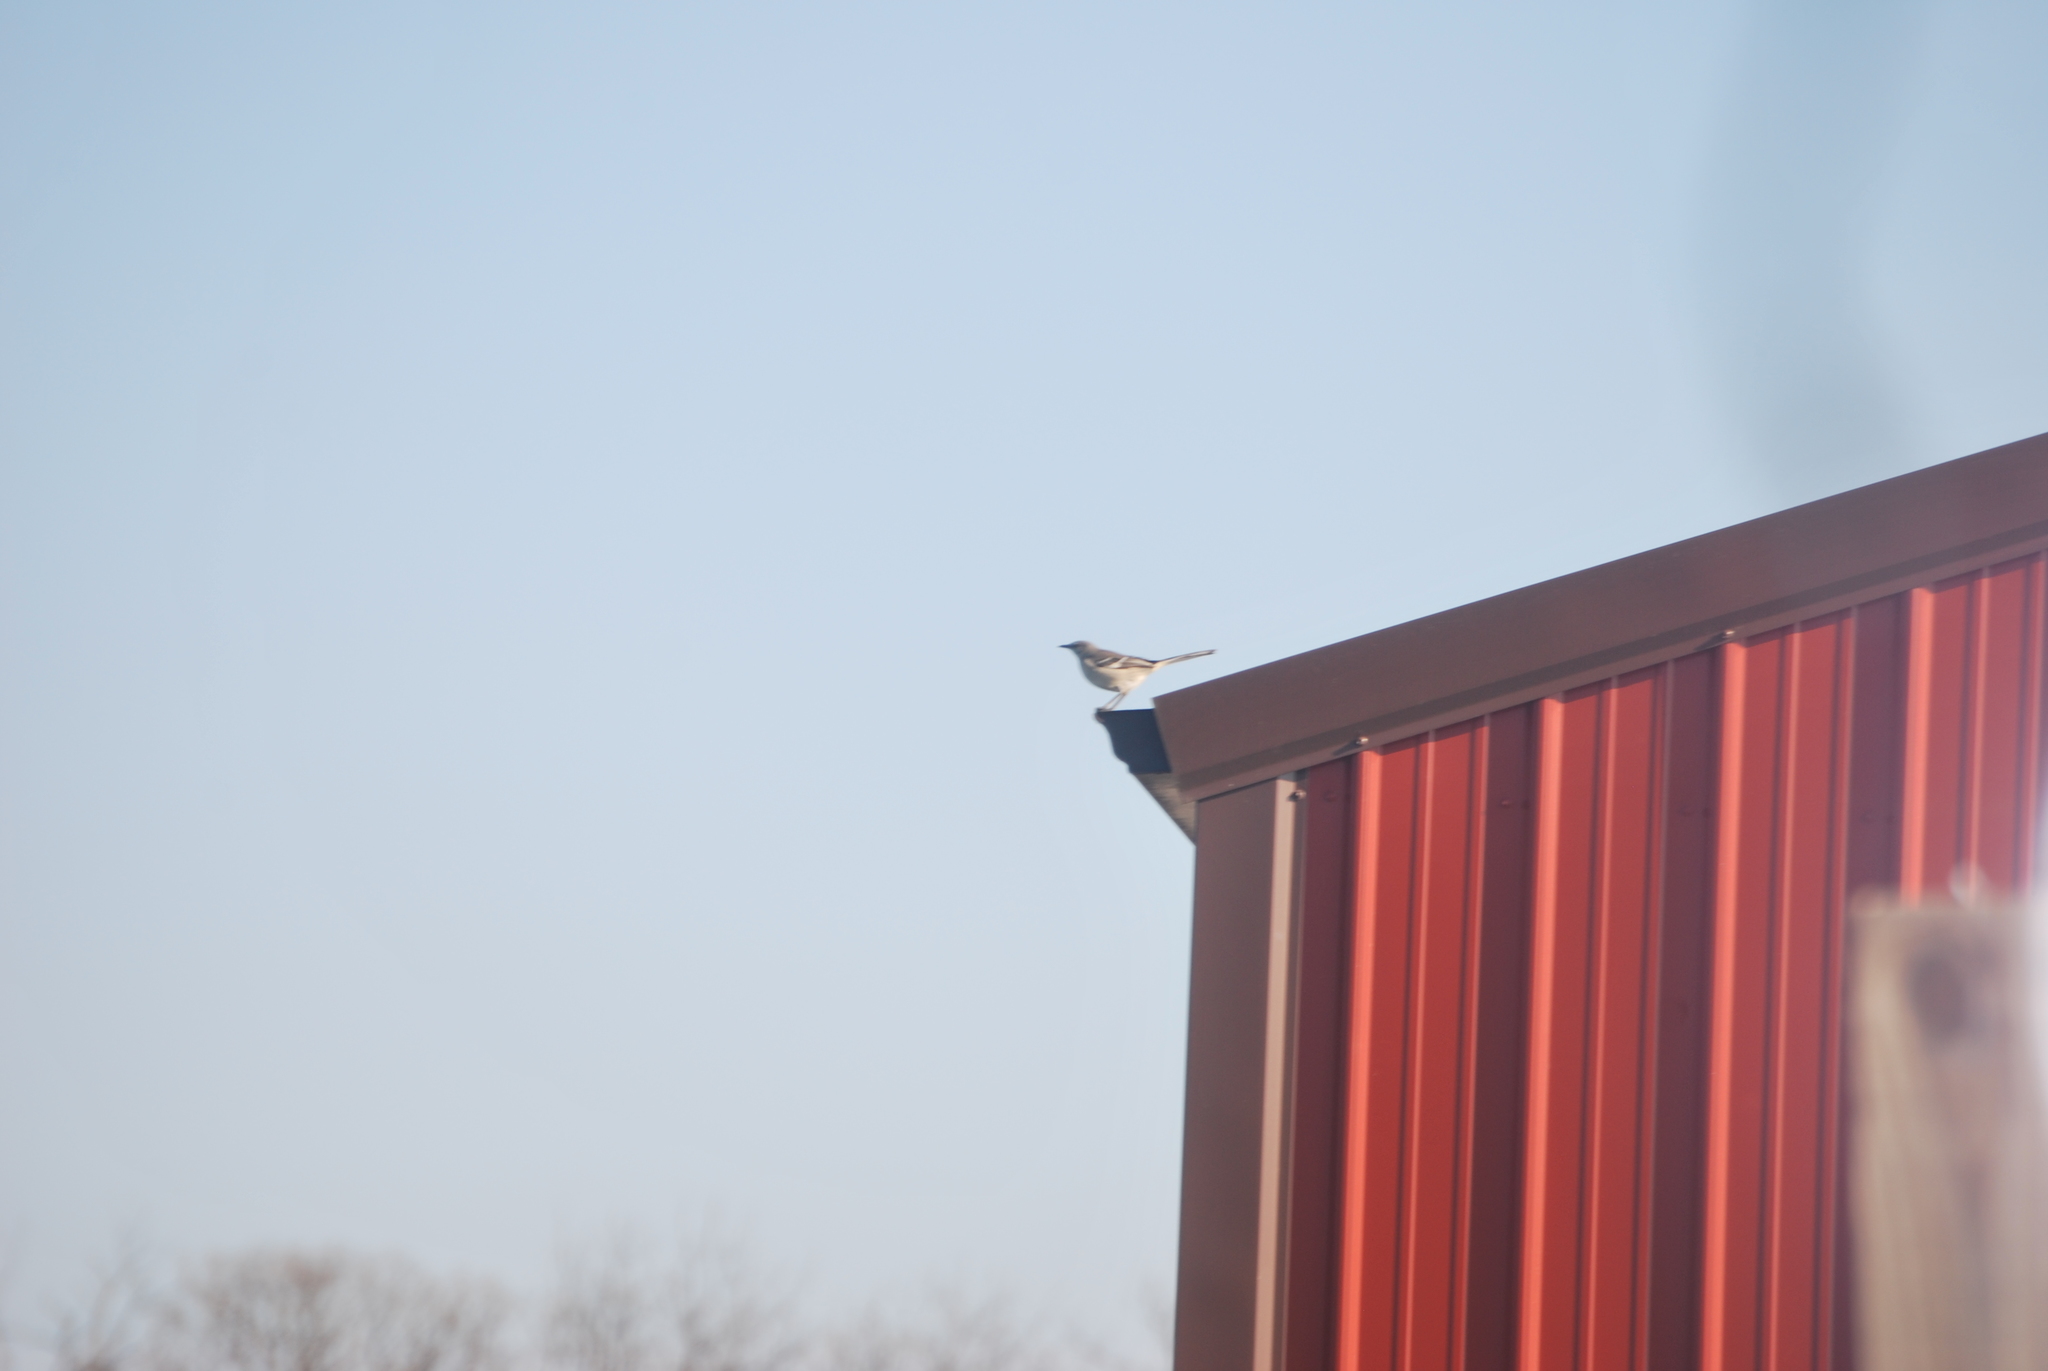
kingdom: Animalia
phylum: Chordata
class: Aves
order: Passeriformes
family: Mimidae
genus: Mimus
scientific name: Mimus polyglottos
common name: Northern mockingbird
